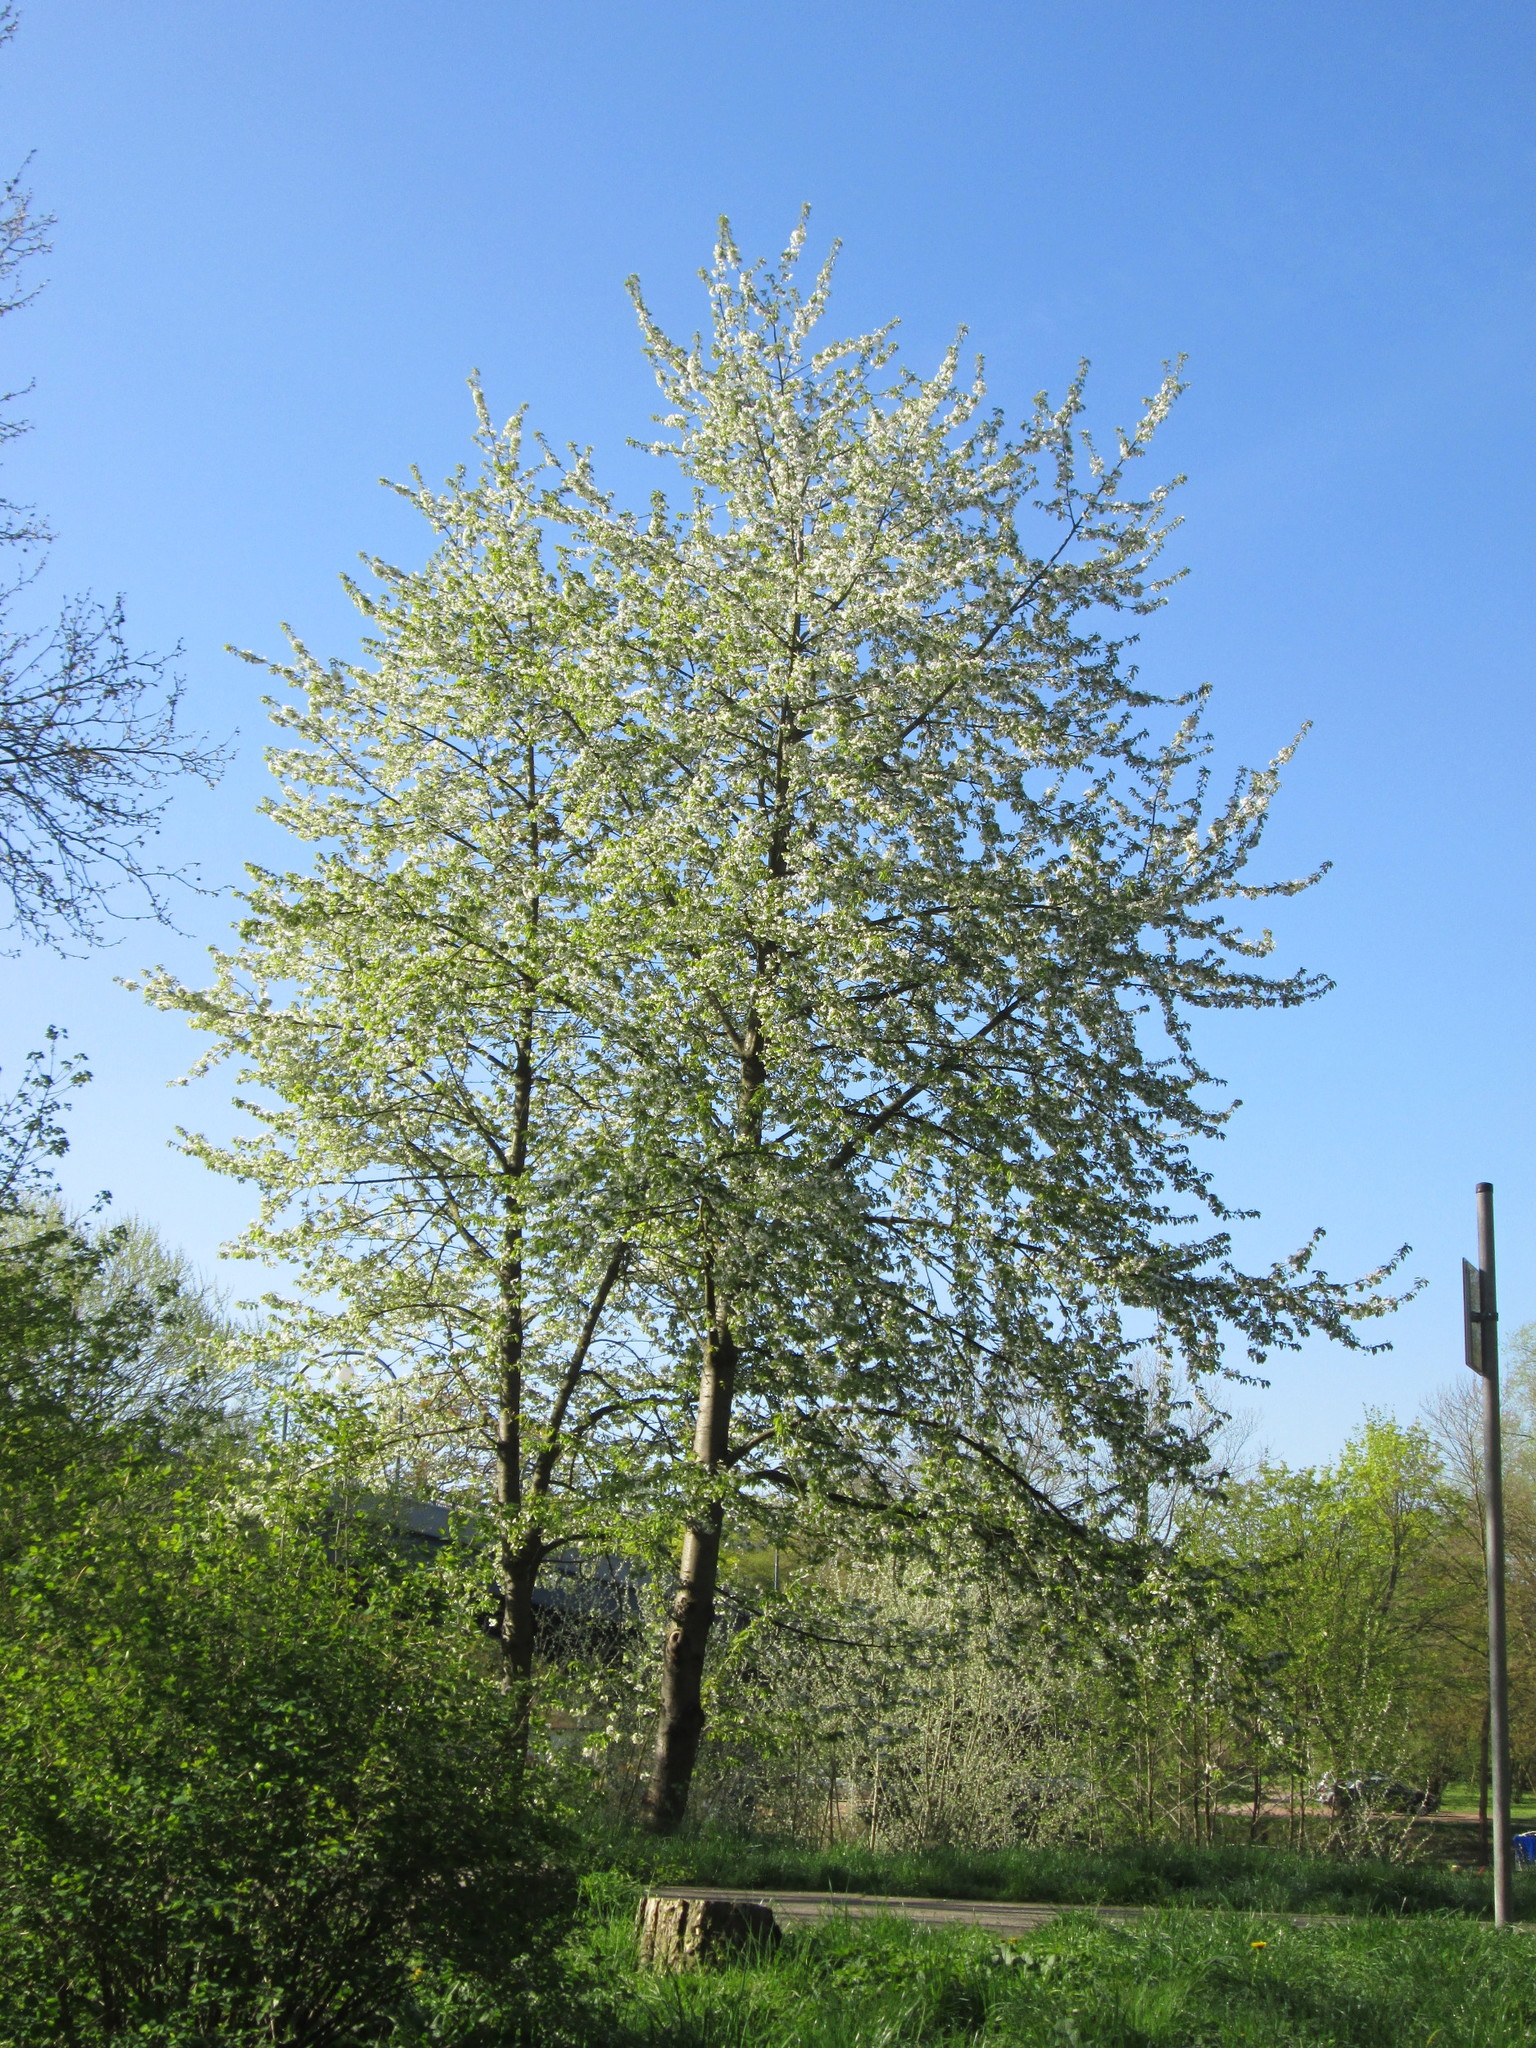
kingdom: Plantae
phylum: Tracheophyta
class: Magnoliopsida
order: Rosales
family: Rosaceae
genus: Prunus
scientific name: Prunus avium
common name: Sweet cherry
